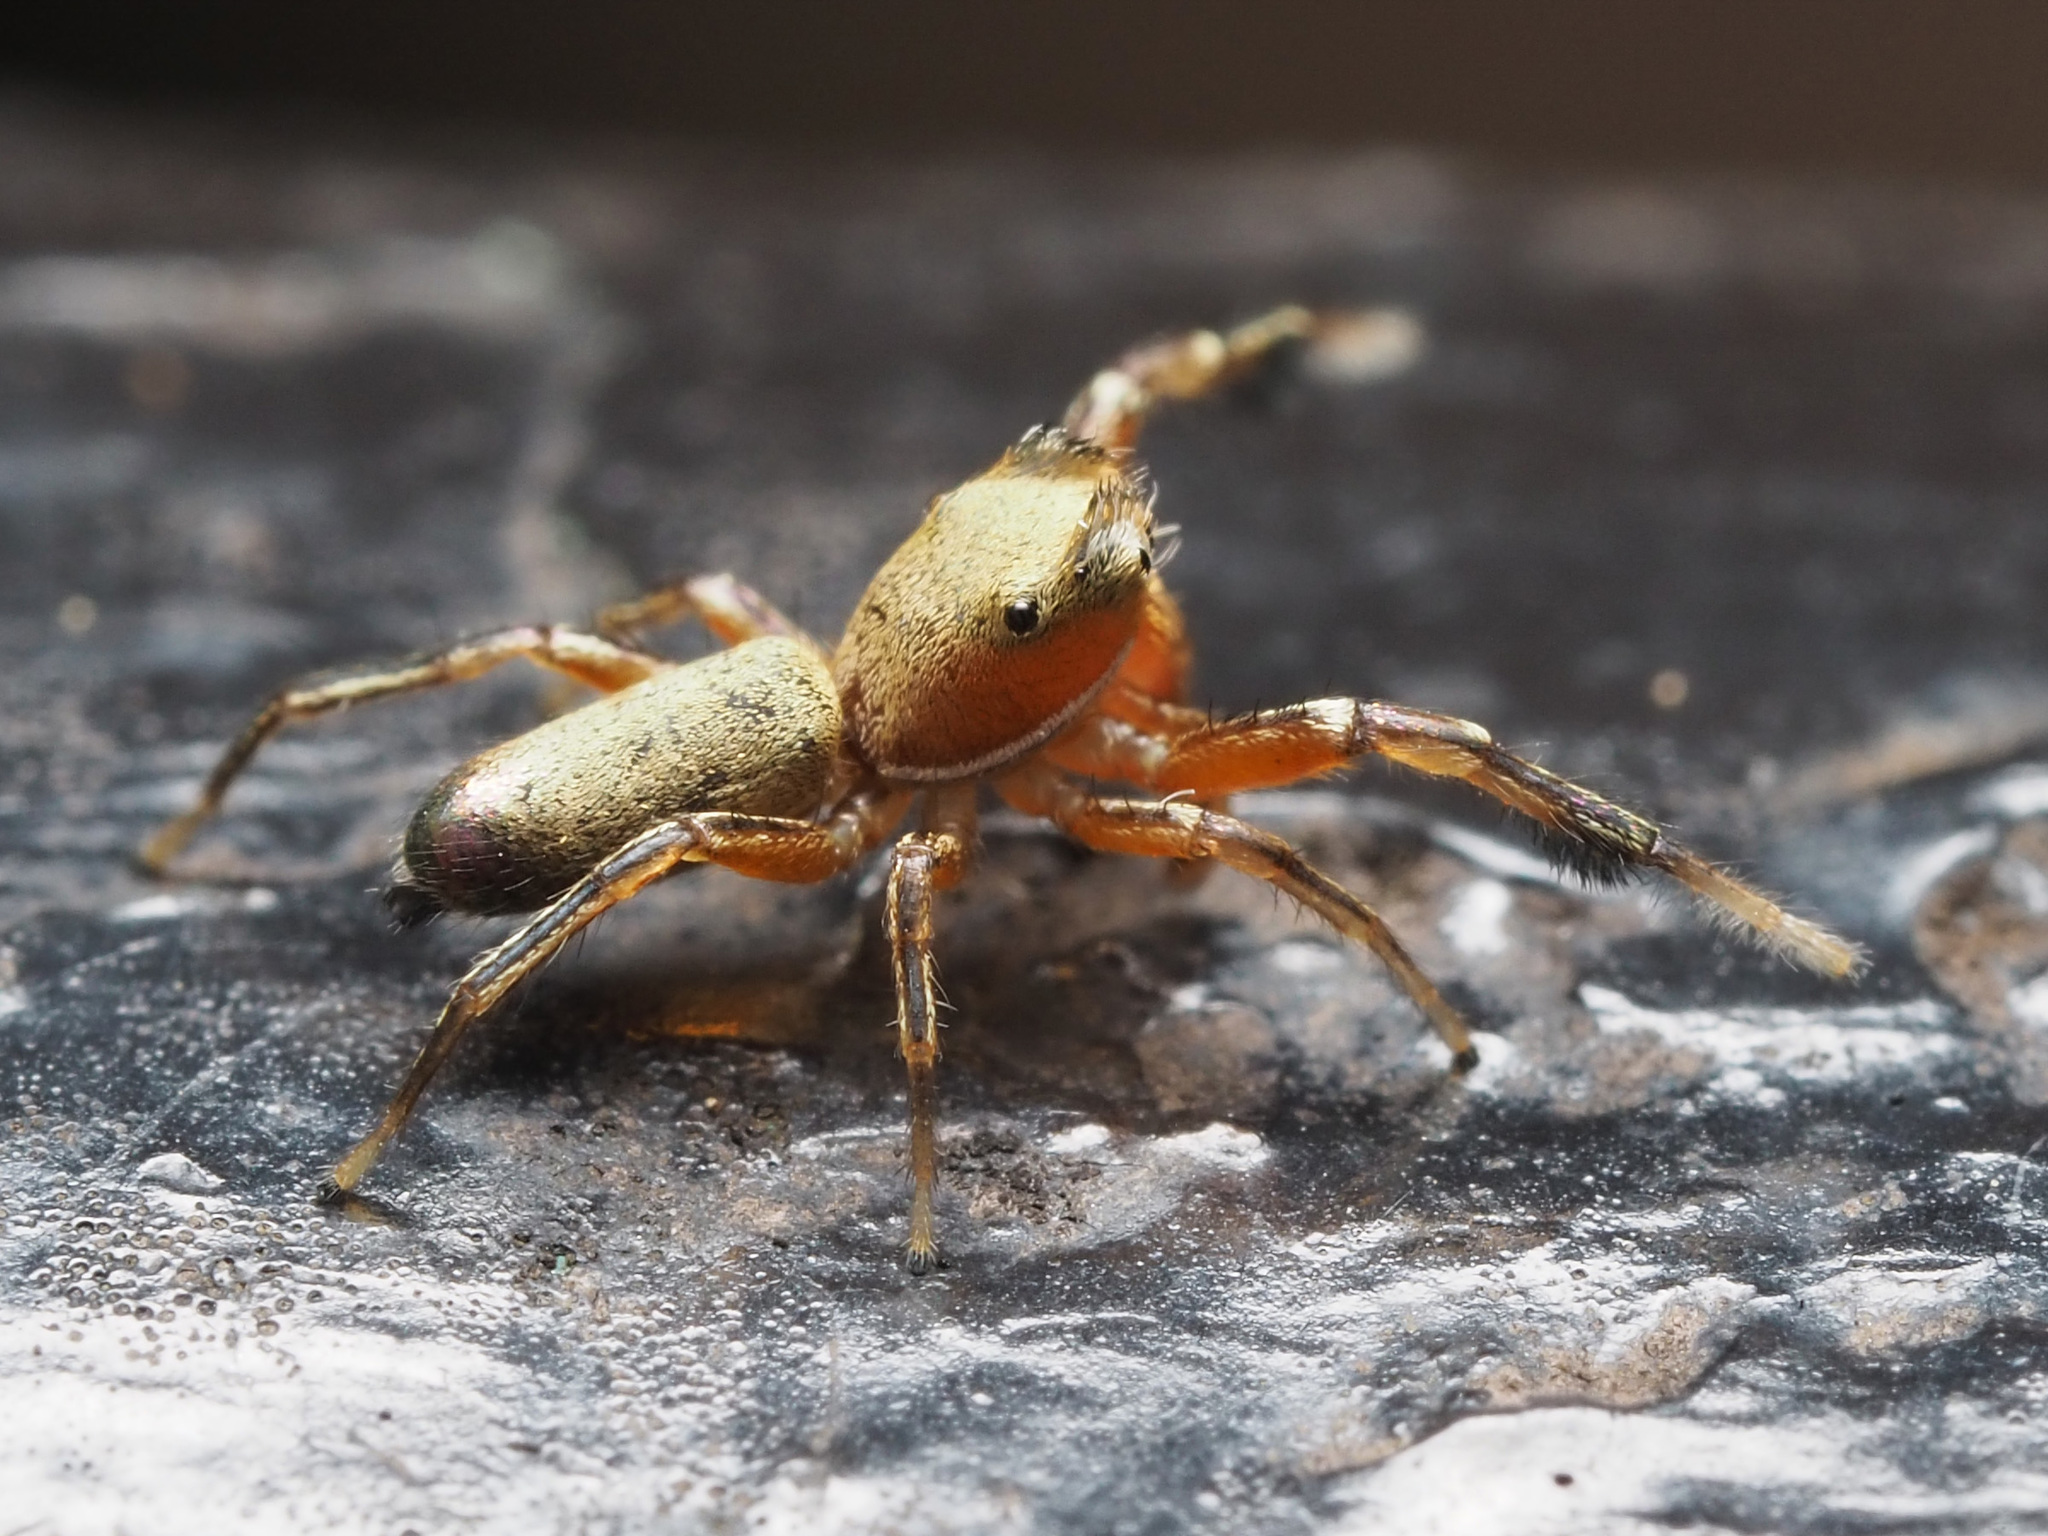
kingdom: Animalia
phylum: Arthropoda
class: Arachnida
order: Araneae
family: Salticidae
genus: Tutelina
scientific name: Tutelina elegans
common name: Thin-spined jumping spider
